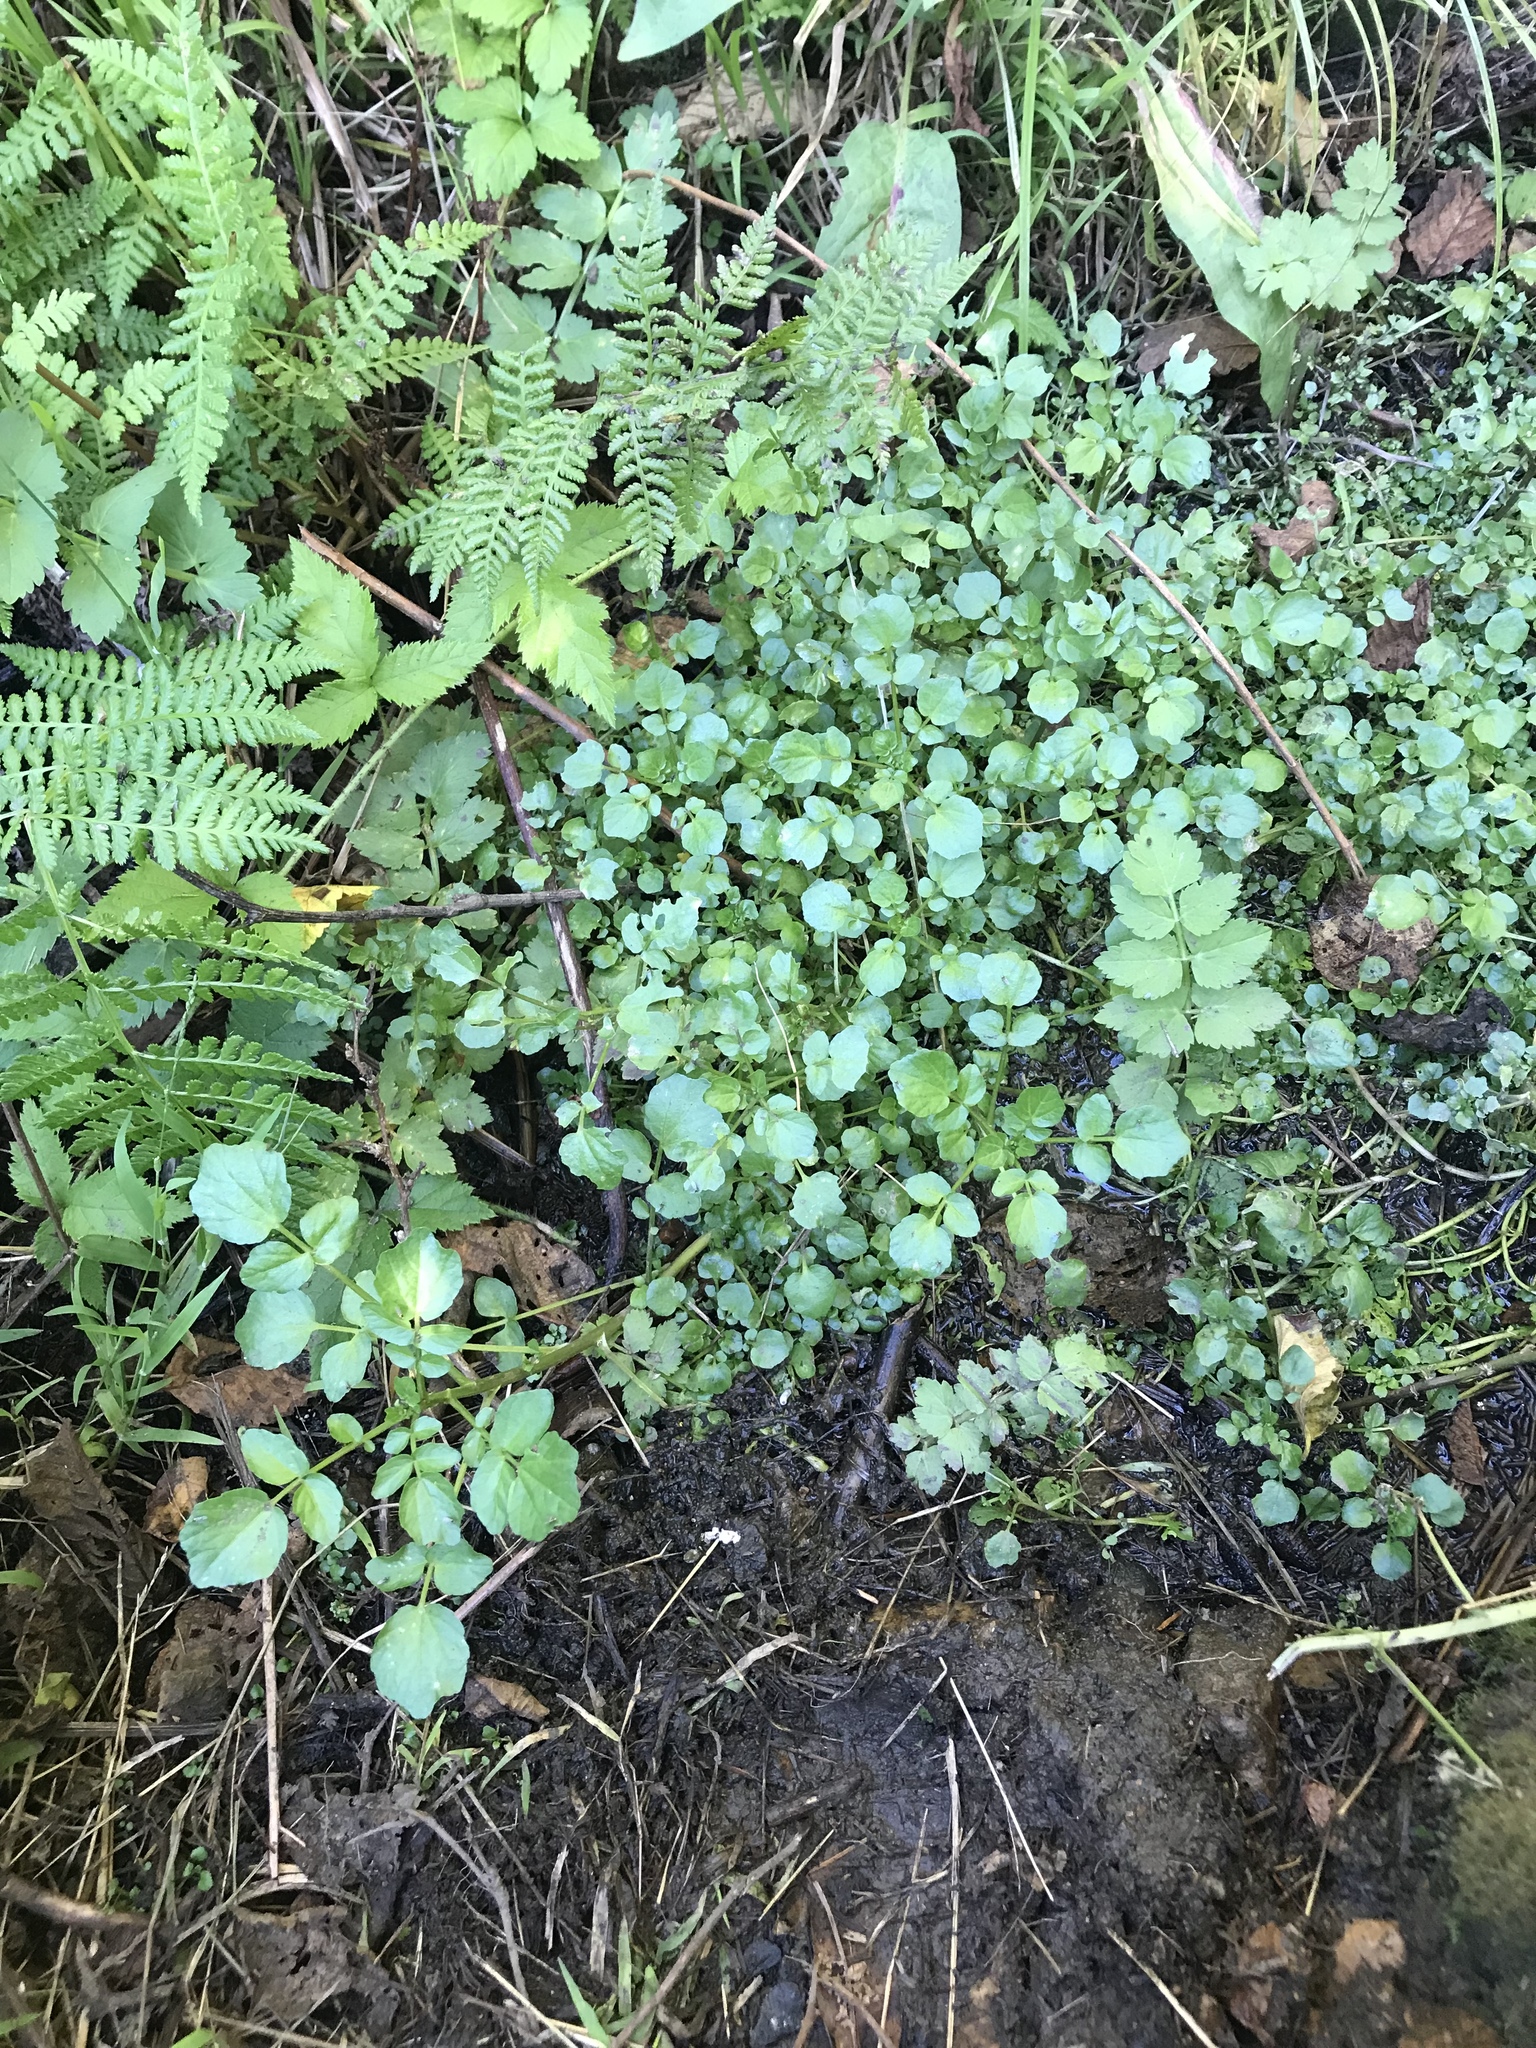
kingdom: Plantae
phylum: Tracheophyta
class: Magnoliopsida
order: Brassicales
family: Brassicaceae
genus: Nasturtium
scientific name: Nasturtium officinale
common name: Watercress
